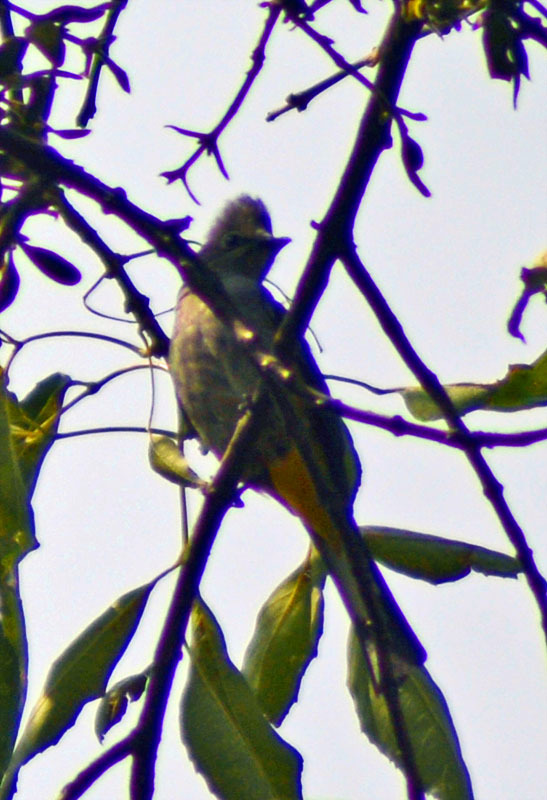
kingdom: Animalia
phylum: Chordata
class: Aves
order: Passeriformes
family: Ptilogonatidae
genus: Ptilogonys
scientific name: Ptilogonys cinereus
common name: Gray silky-flycatcher
